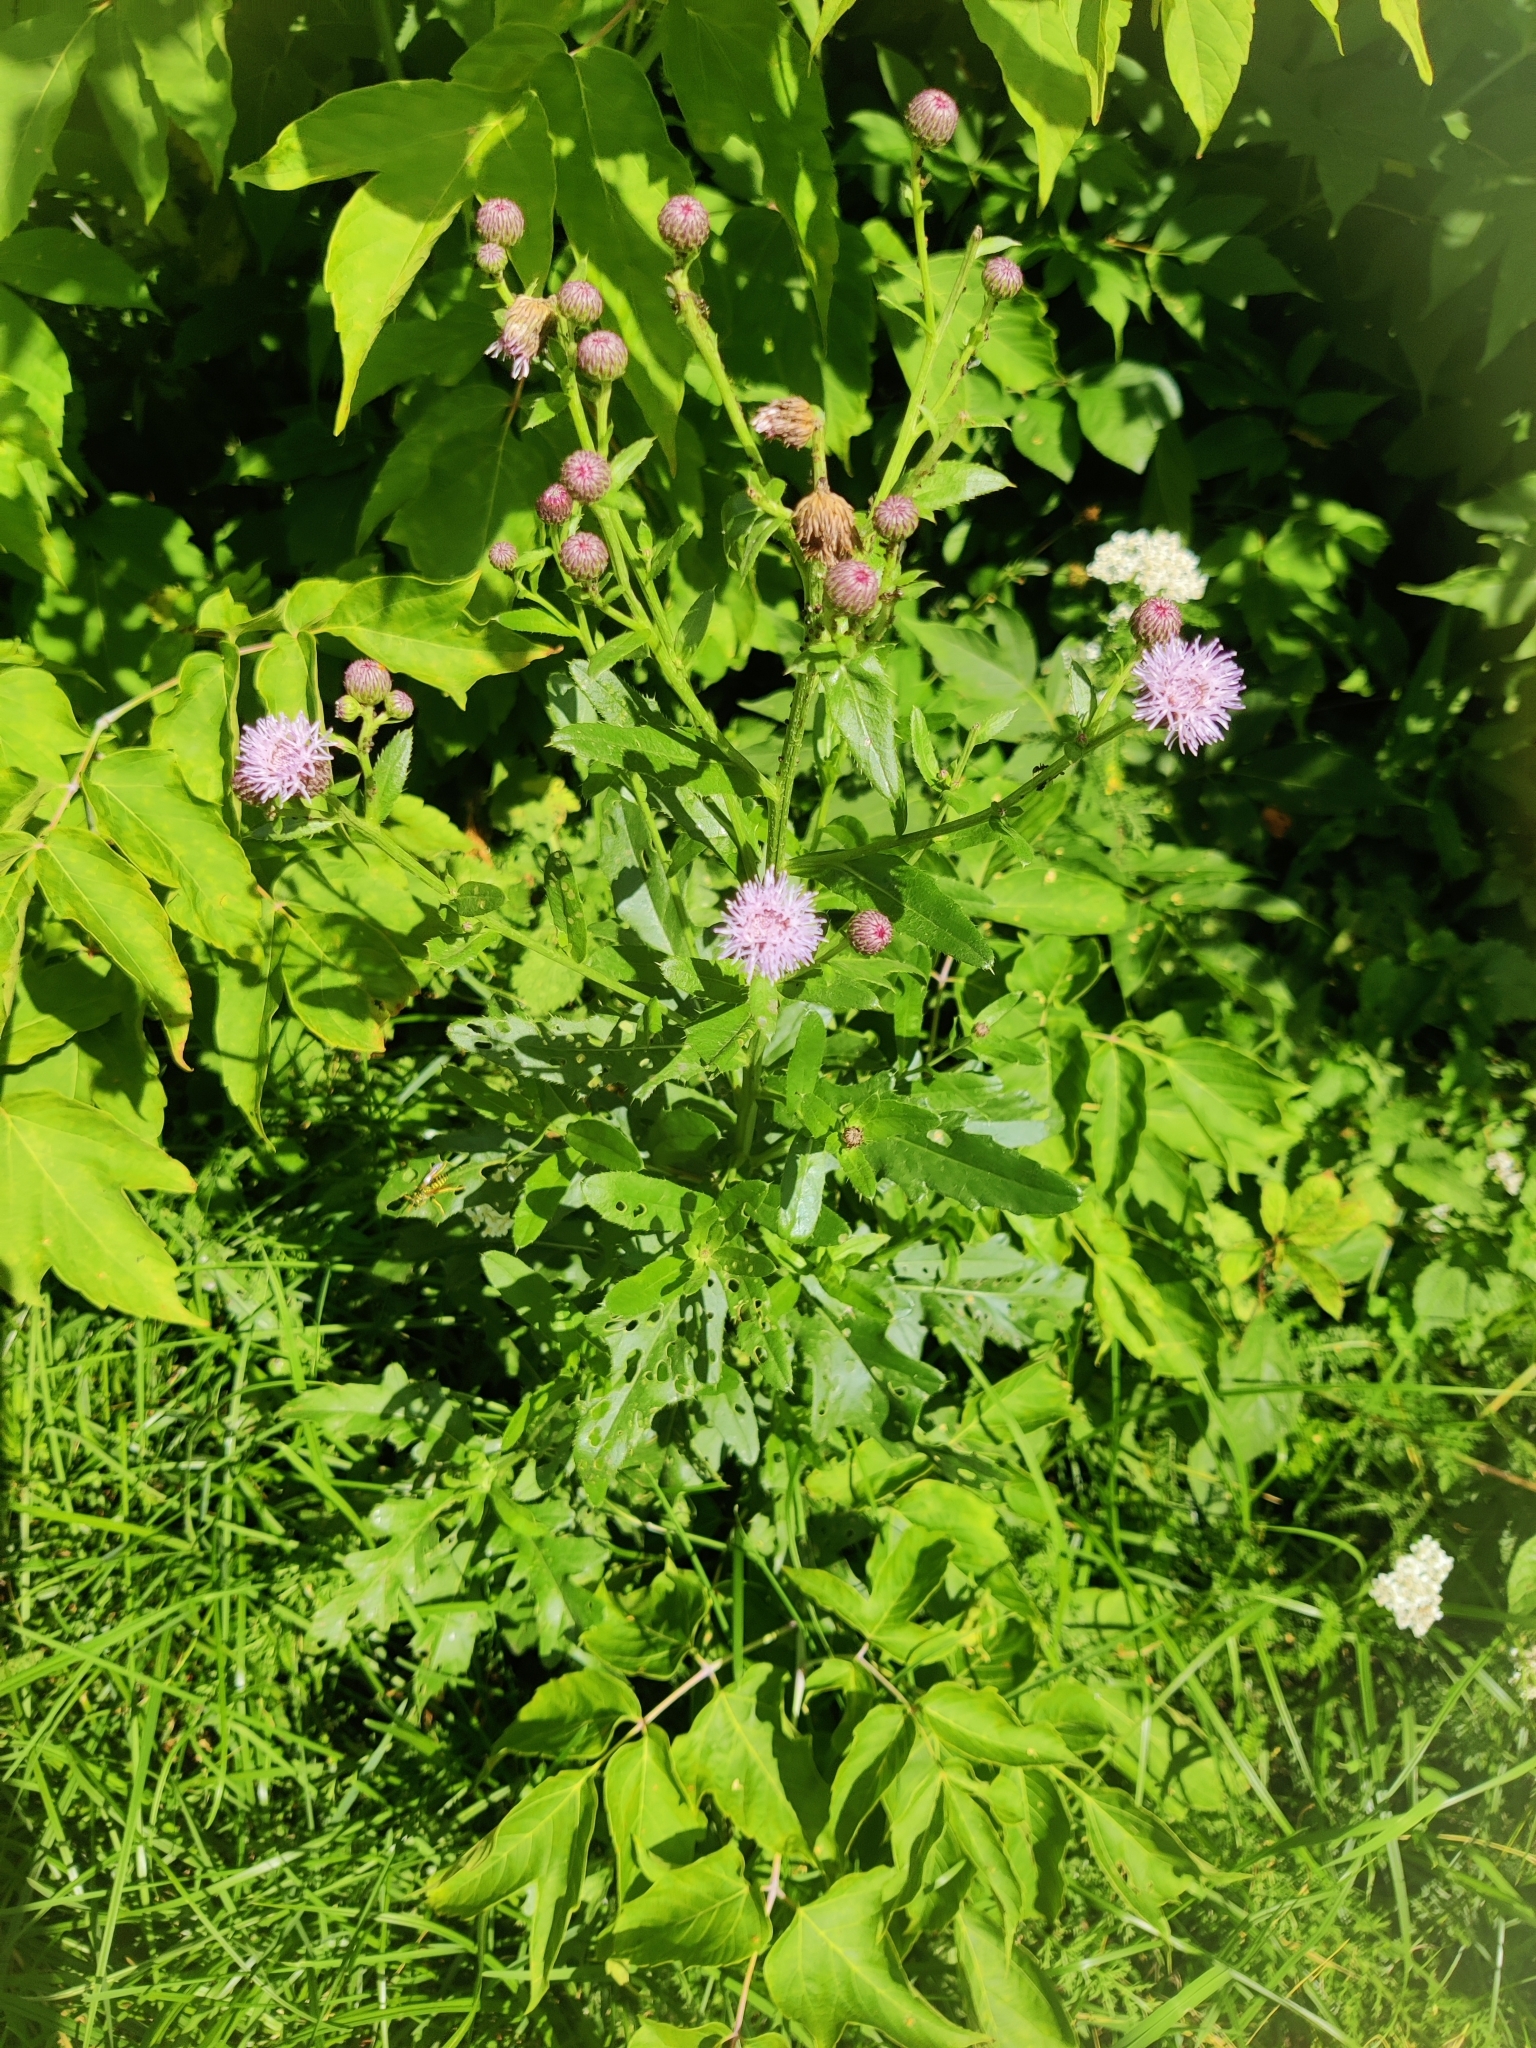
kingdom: Plantae
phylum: Tracheophyta
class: Magnoliopsida
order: Asterales
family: Asteraceae
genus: Cirsium
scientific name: Cirsium arvense
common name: Creeping thistle
